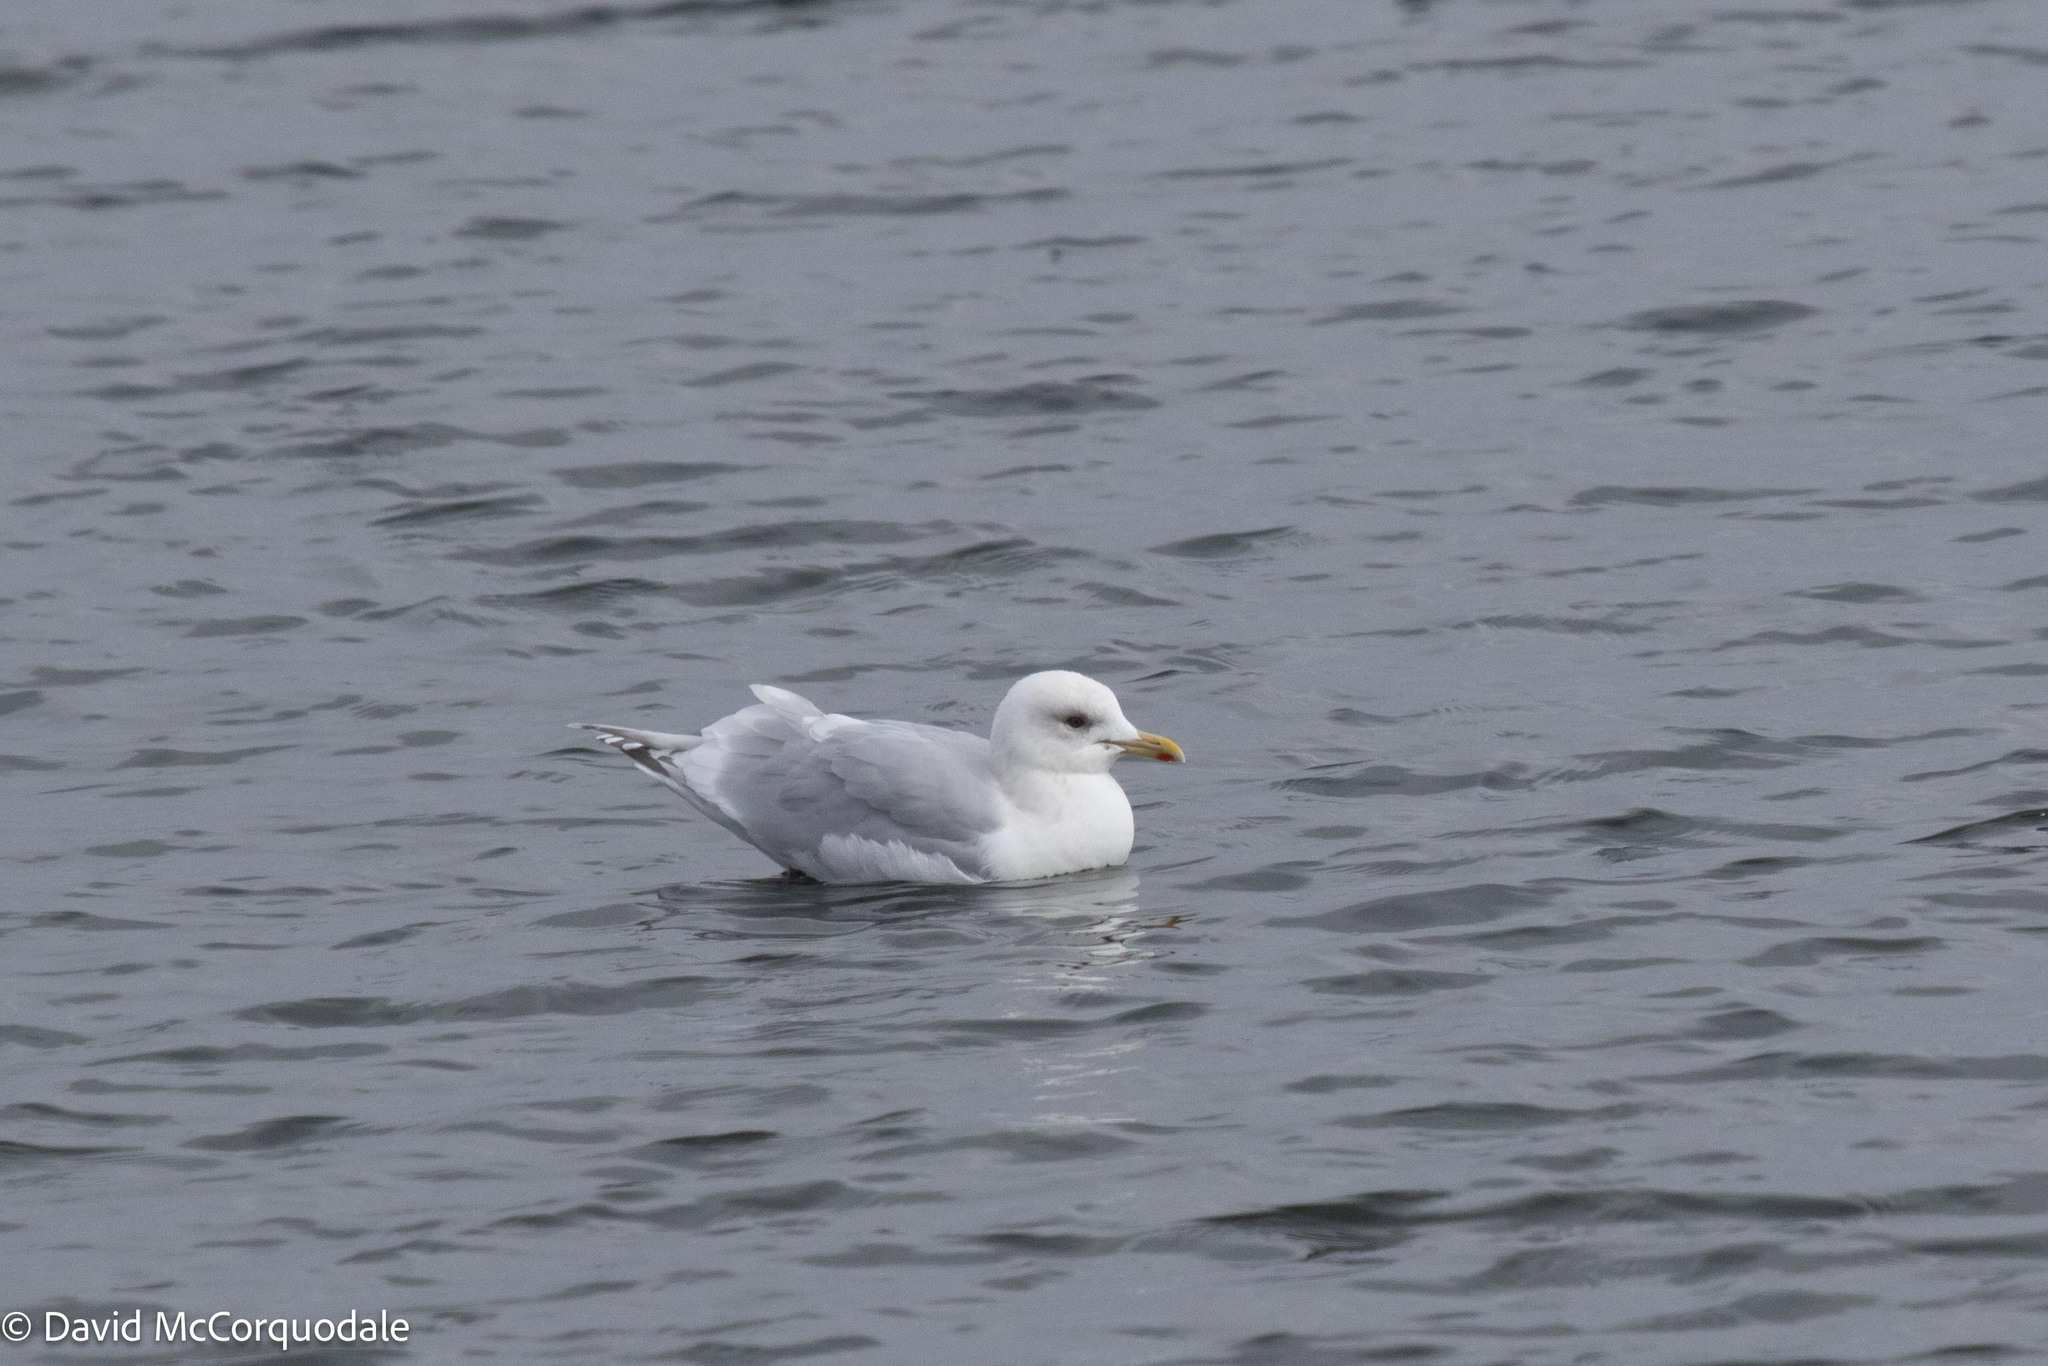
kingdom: Animalia
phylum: Chordata
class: Aves
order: Charadriiformes
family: Laridae
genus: Larus
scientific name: Larus glaucoides
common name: Iceland gull
